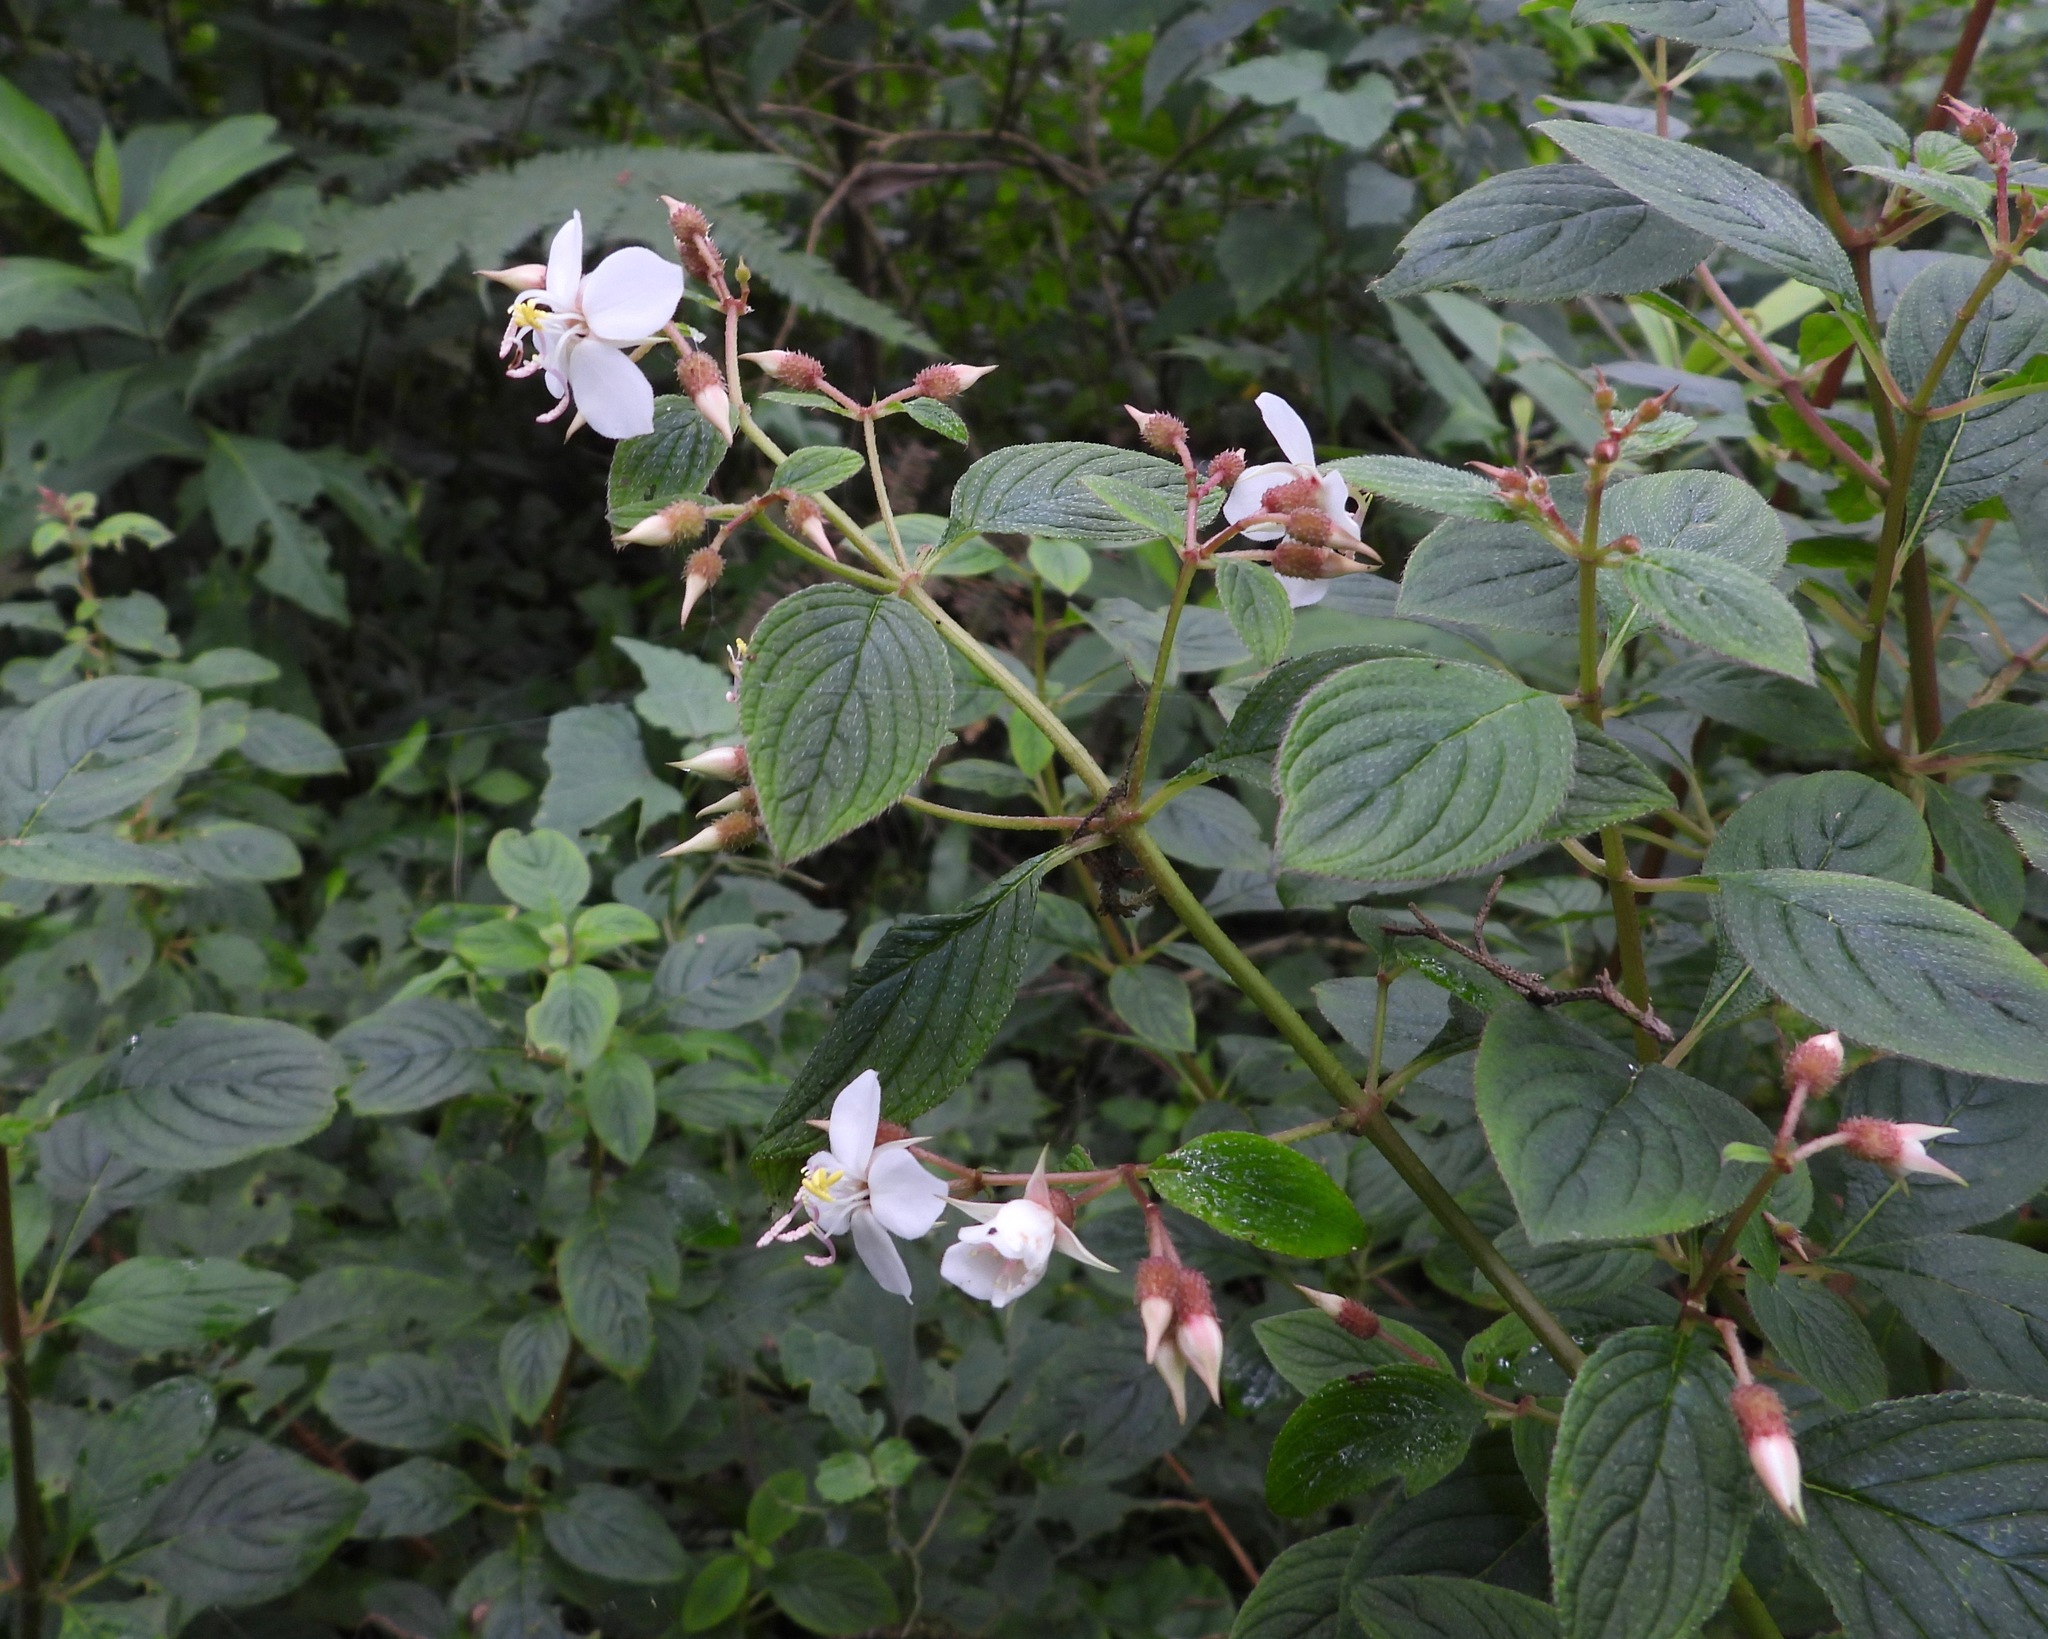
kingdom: Plantae
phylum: Tracheophyta
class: Magnoliopsida
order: Myrtales
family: Melastomataceae
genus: Heterocentron
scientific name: Heterocentron subtriplinervium
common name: Pearl flower
